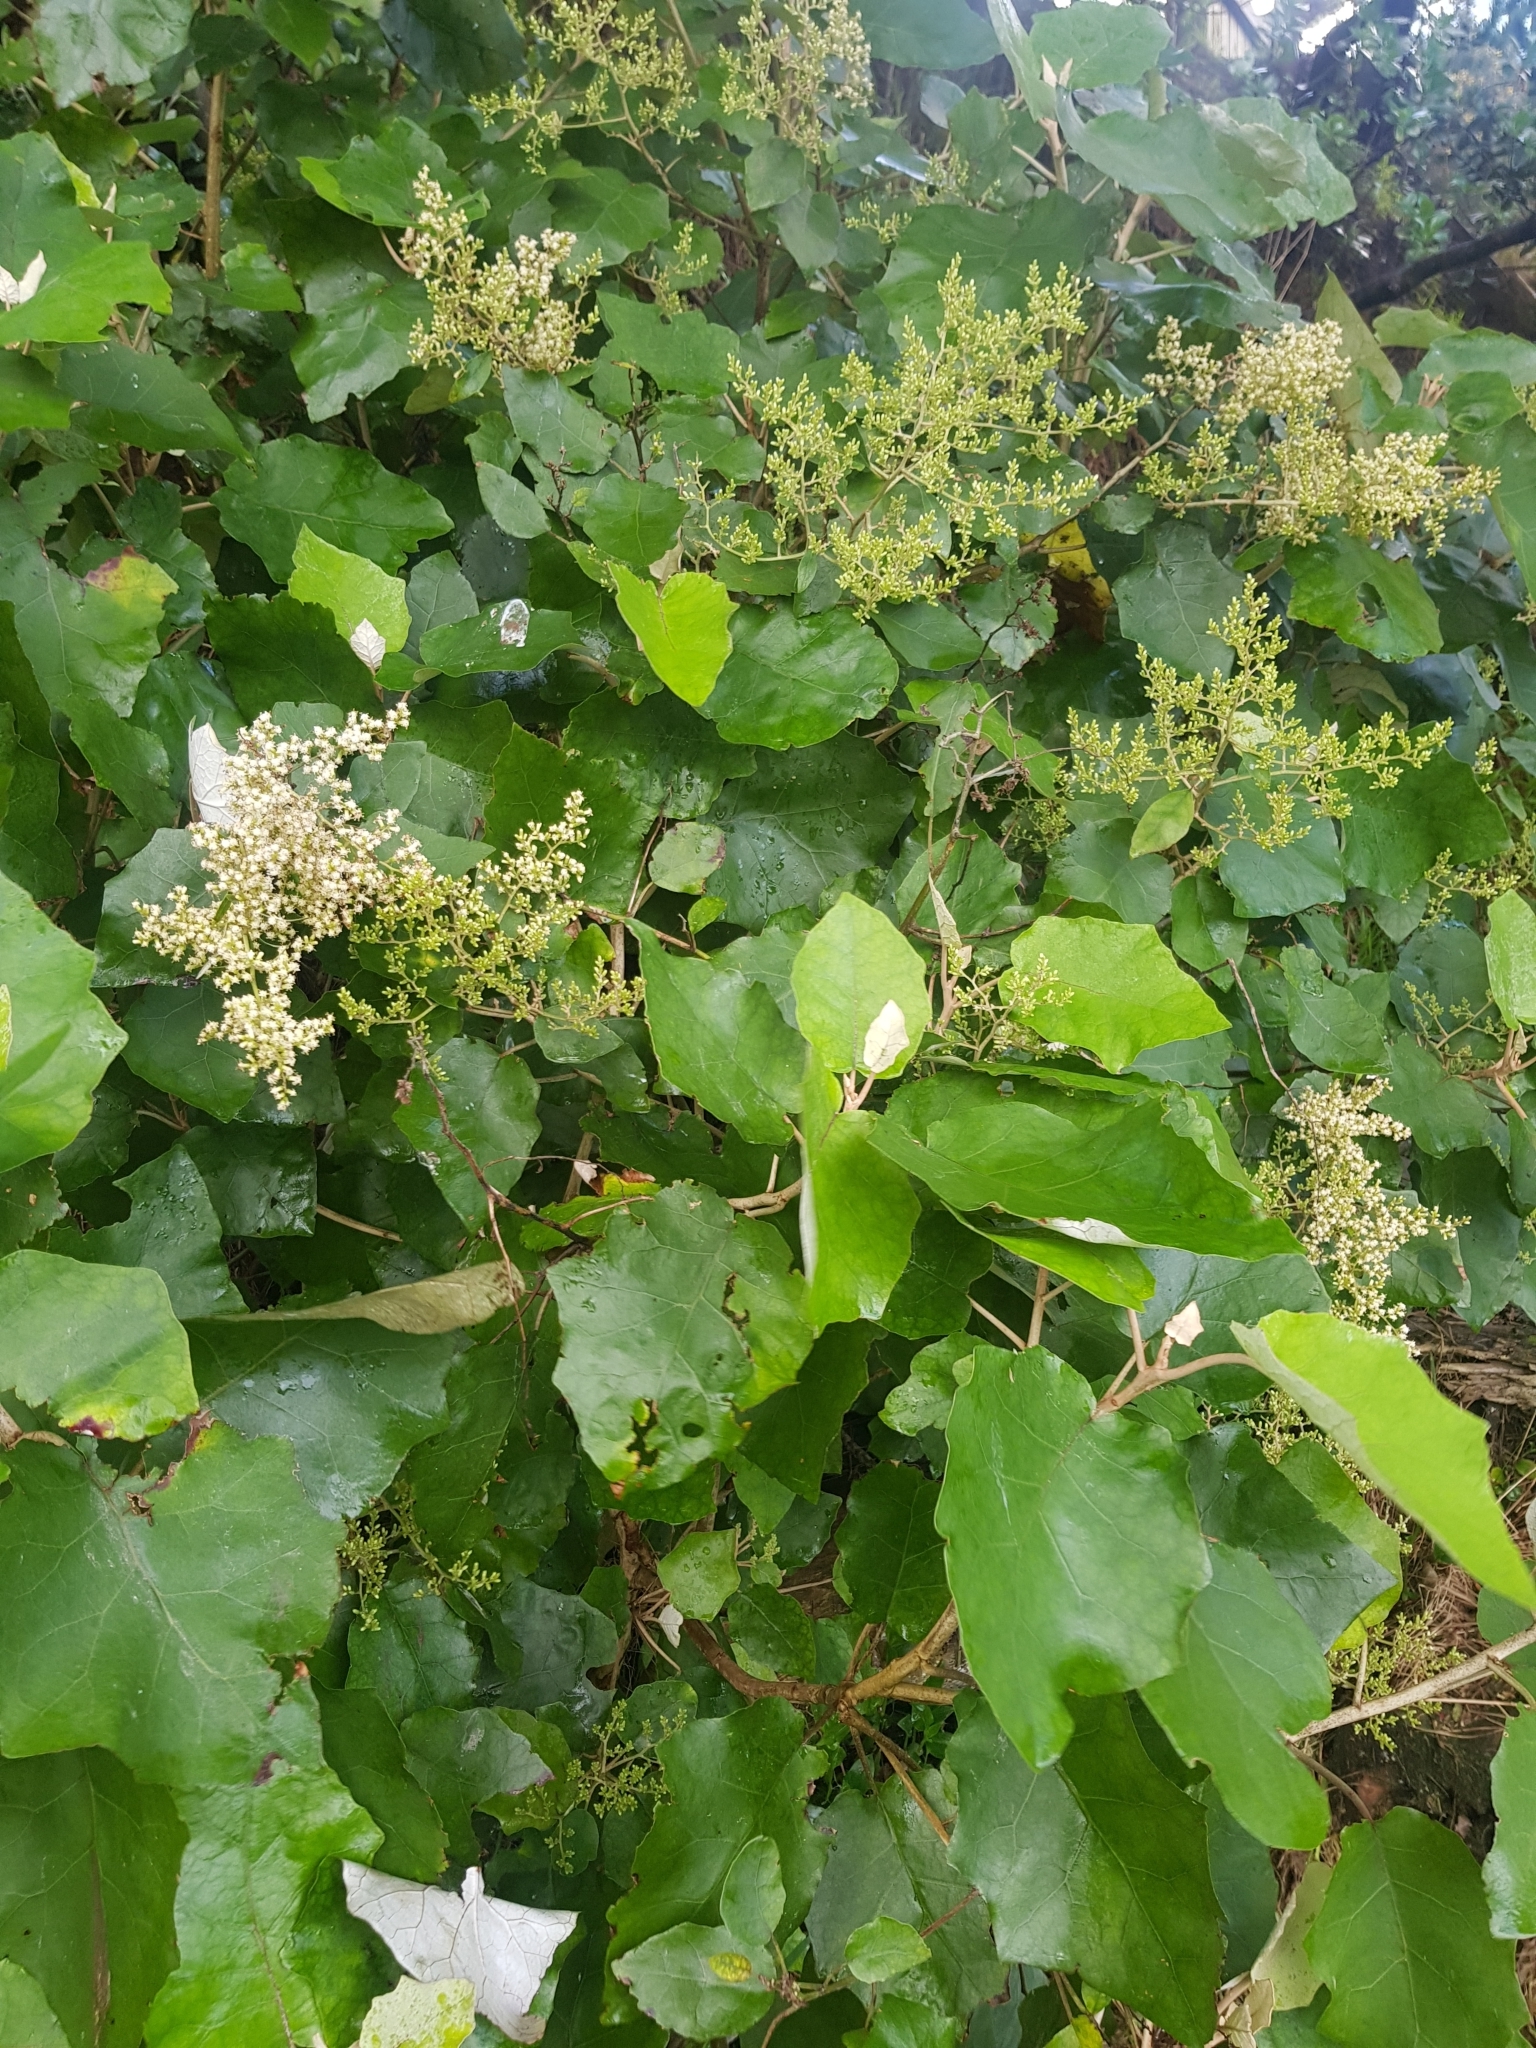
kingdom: Plantae
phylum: Tracheophyta
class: Magnoliopsida
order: Asterales
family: Asteraceae
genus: Brachyglottis
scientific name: Brachyglottis repanda
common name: Hedge ragwort
